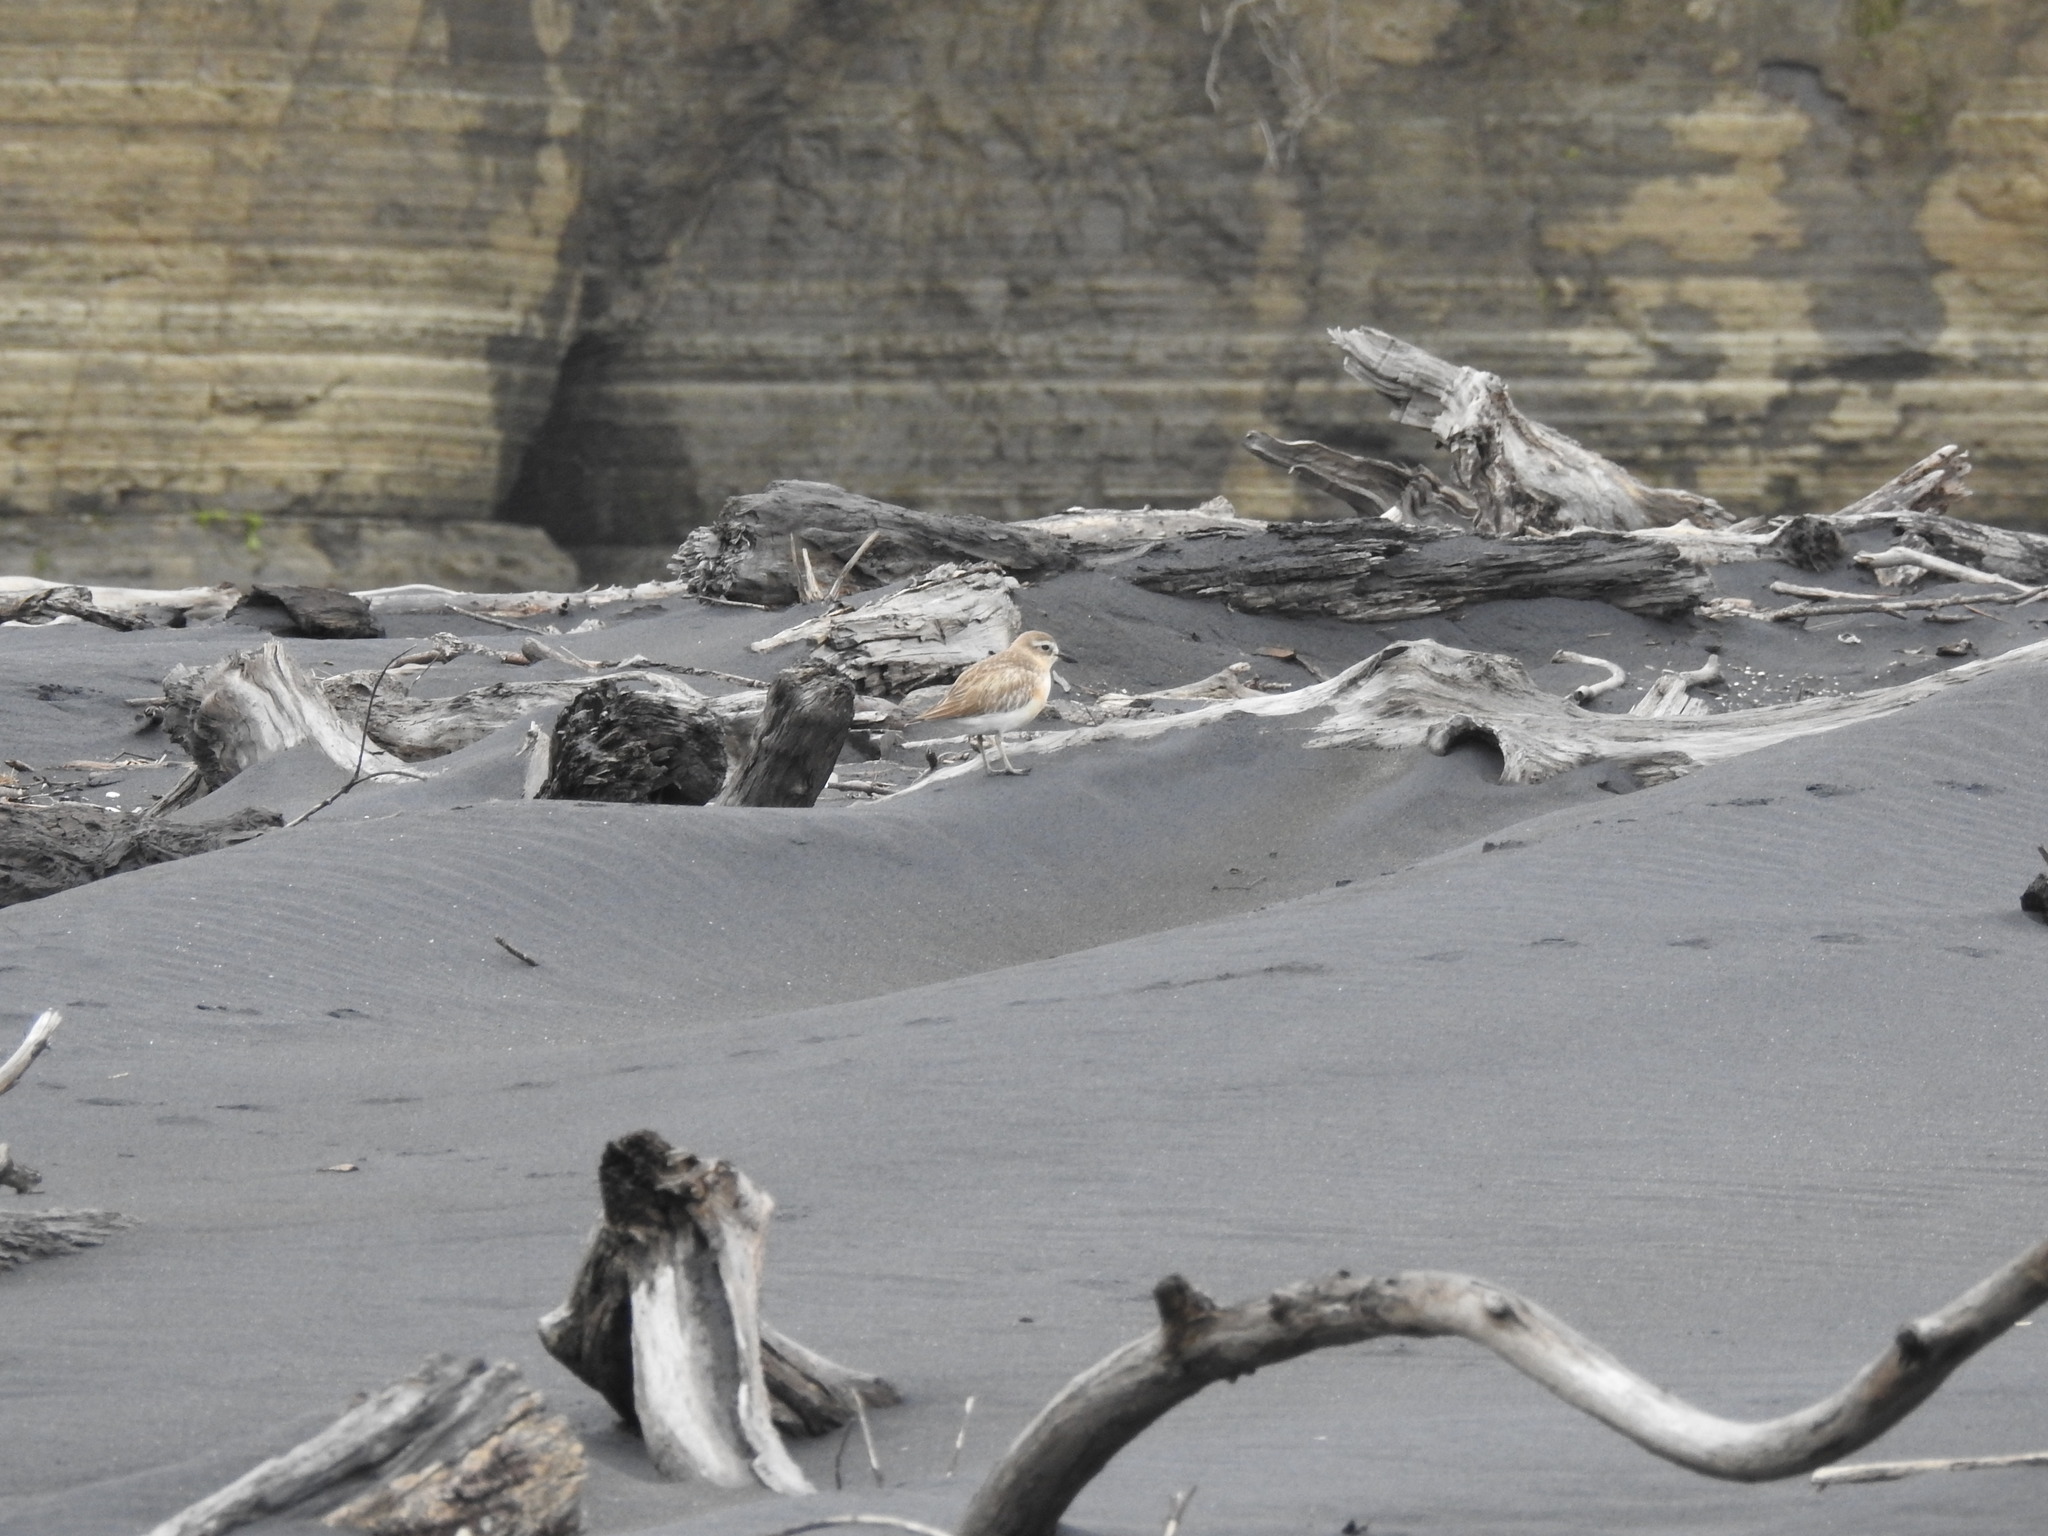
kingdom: Animalia
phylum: Chordata
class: Aves
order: Charadriiformes
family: Charadriidae
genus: Anarhynchus
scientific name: Anarhynchus
